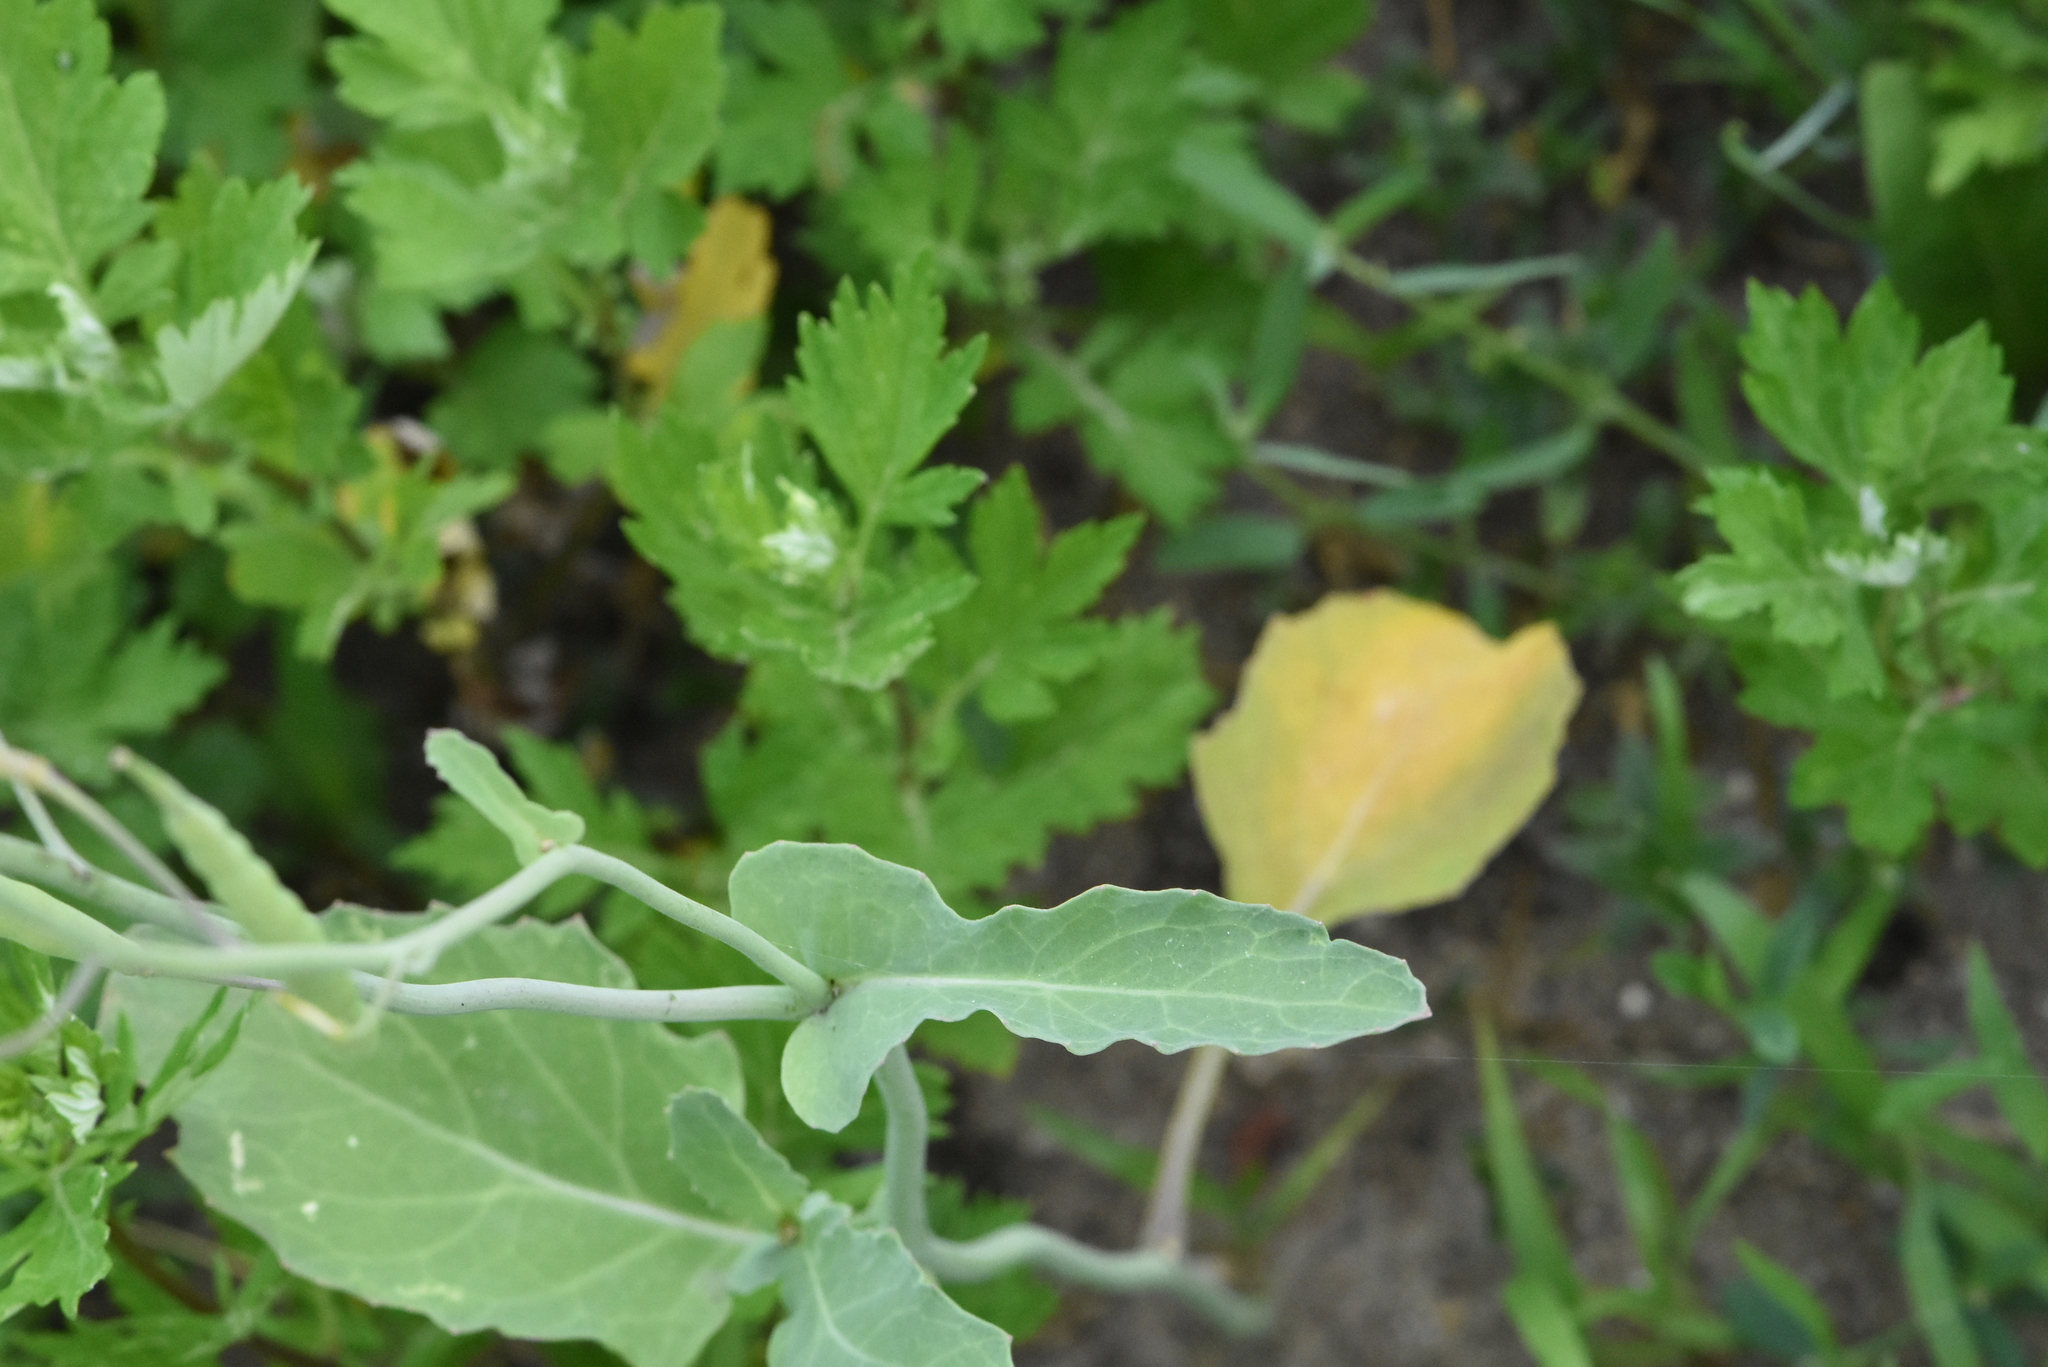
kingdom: Plantae
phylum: Tracheophyta
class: Magnoliopsida
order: Brassicales
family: Brassicaceae
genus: Brassica
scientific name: Brassica napus
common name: Rape
